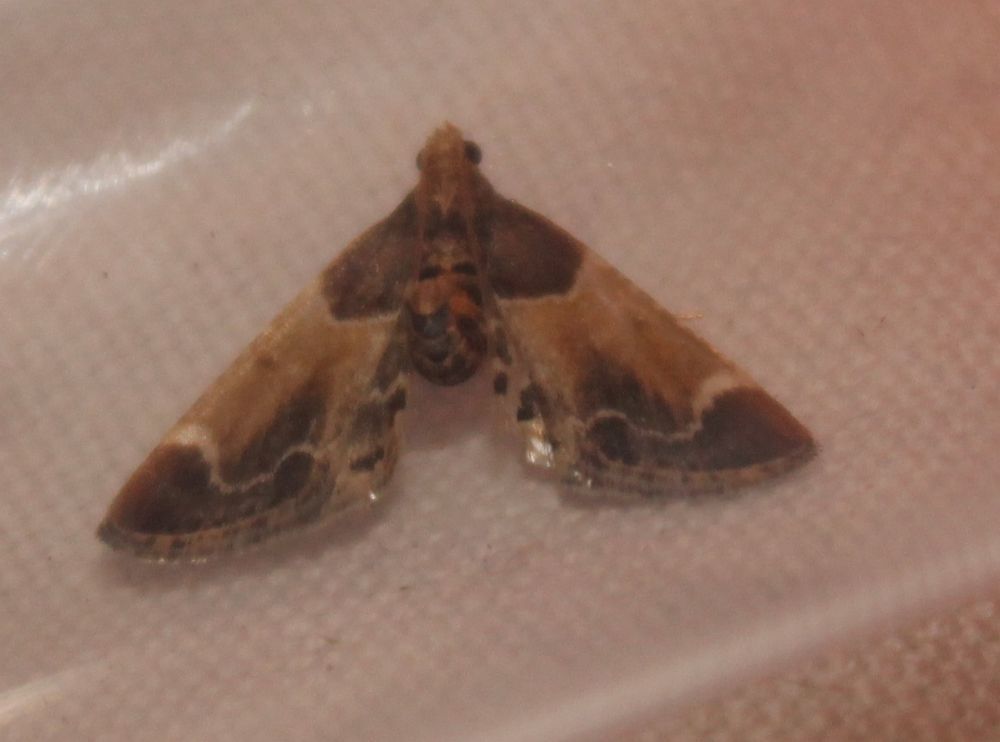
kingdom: Animalia
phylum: Arthropoda
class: Insecta
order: Lepidoptera
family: Pyralidae
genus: Pyralis
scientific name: Pyralis farinalis
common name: Meal moth
